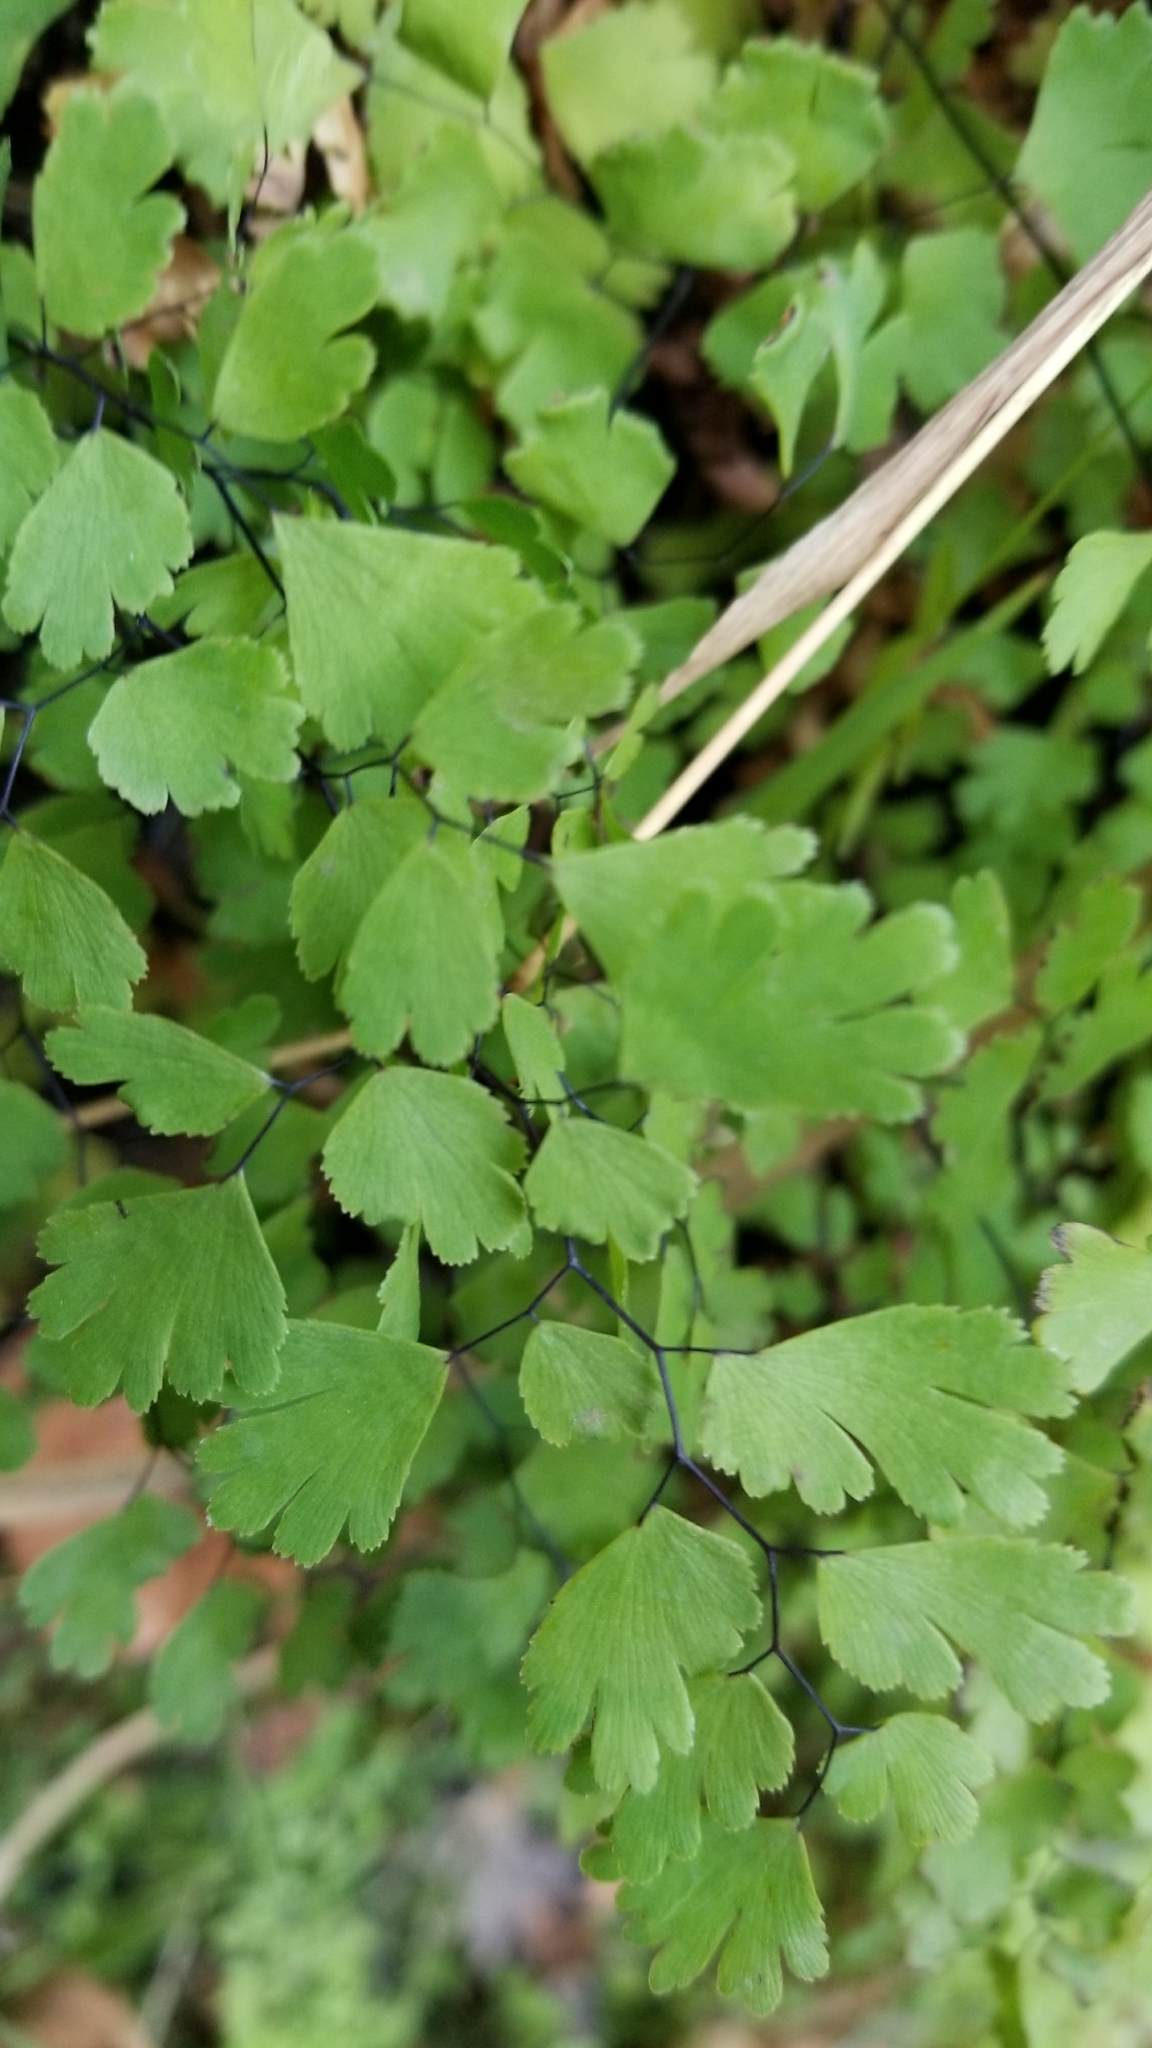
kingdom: Plantae
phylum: Tracheophyta
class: Polypodiopsida
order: Polypodiales
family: Pteridaceae
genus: Adiantum
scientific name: Adiantum capillus-veneris
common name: Maidenhair fern
